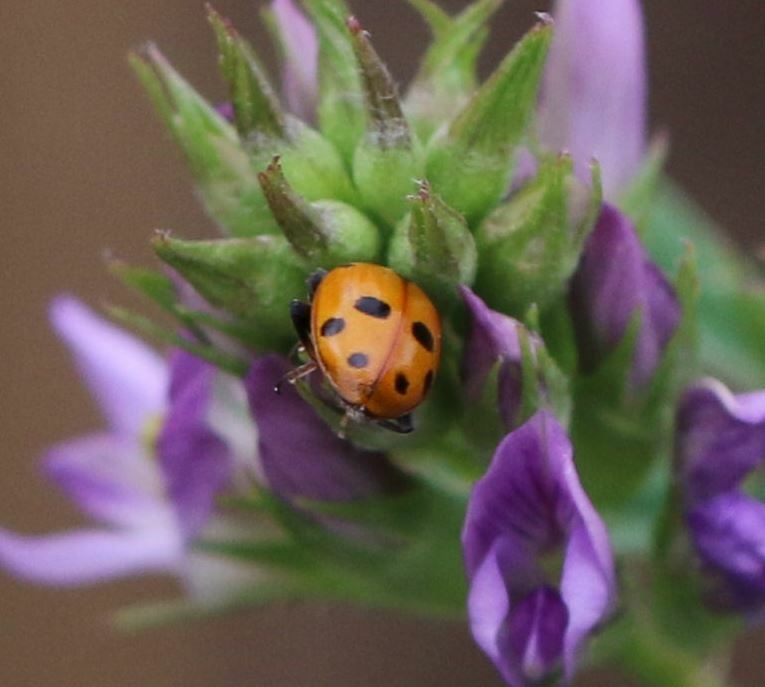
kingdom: Animalia
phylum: Arthropoda
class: Insecta
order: Coleoptera
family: Coccinellidae
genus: Hippodamia
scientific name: Hippodamia variegata
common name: Ladybird beetle
